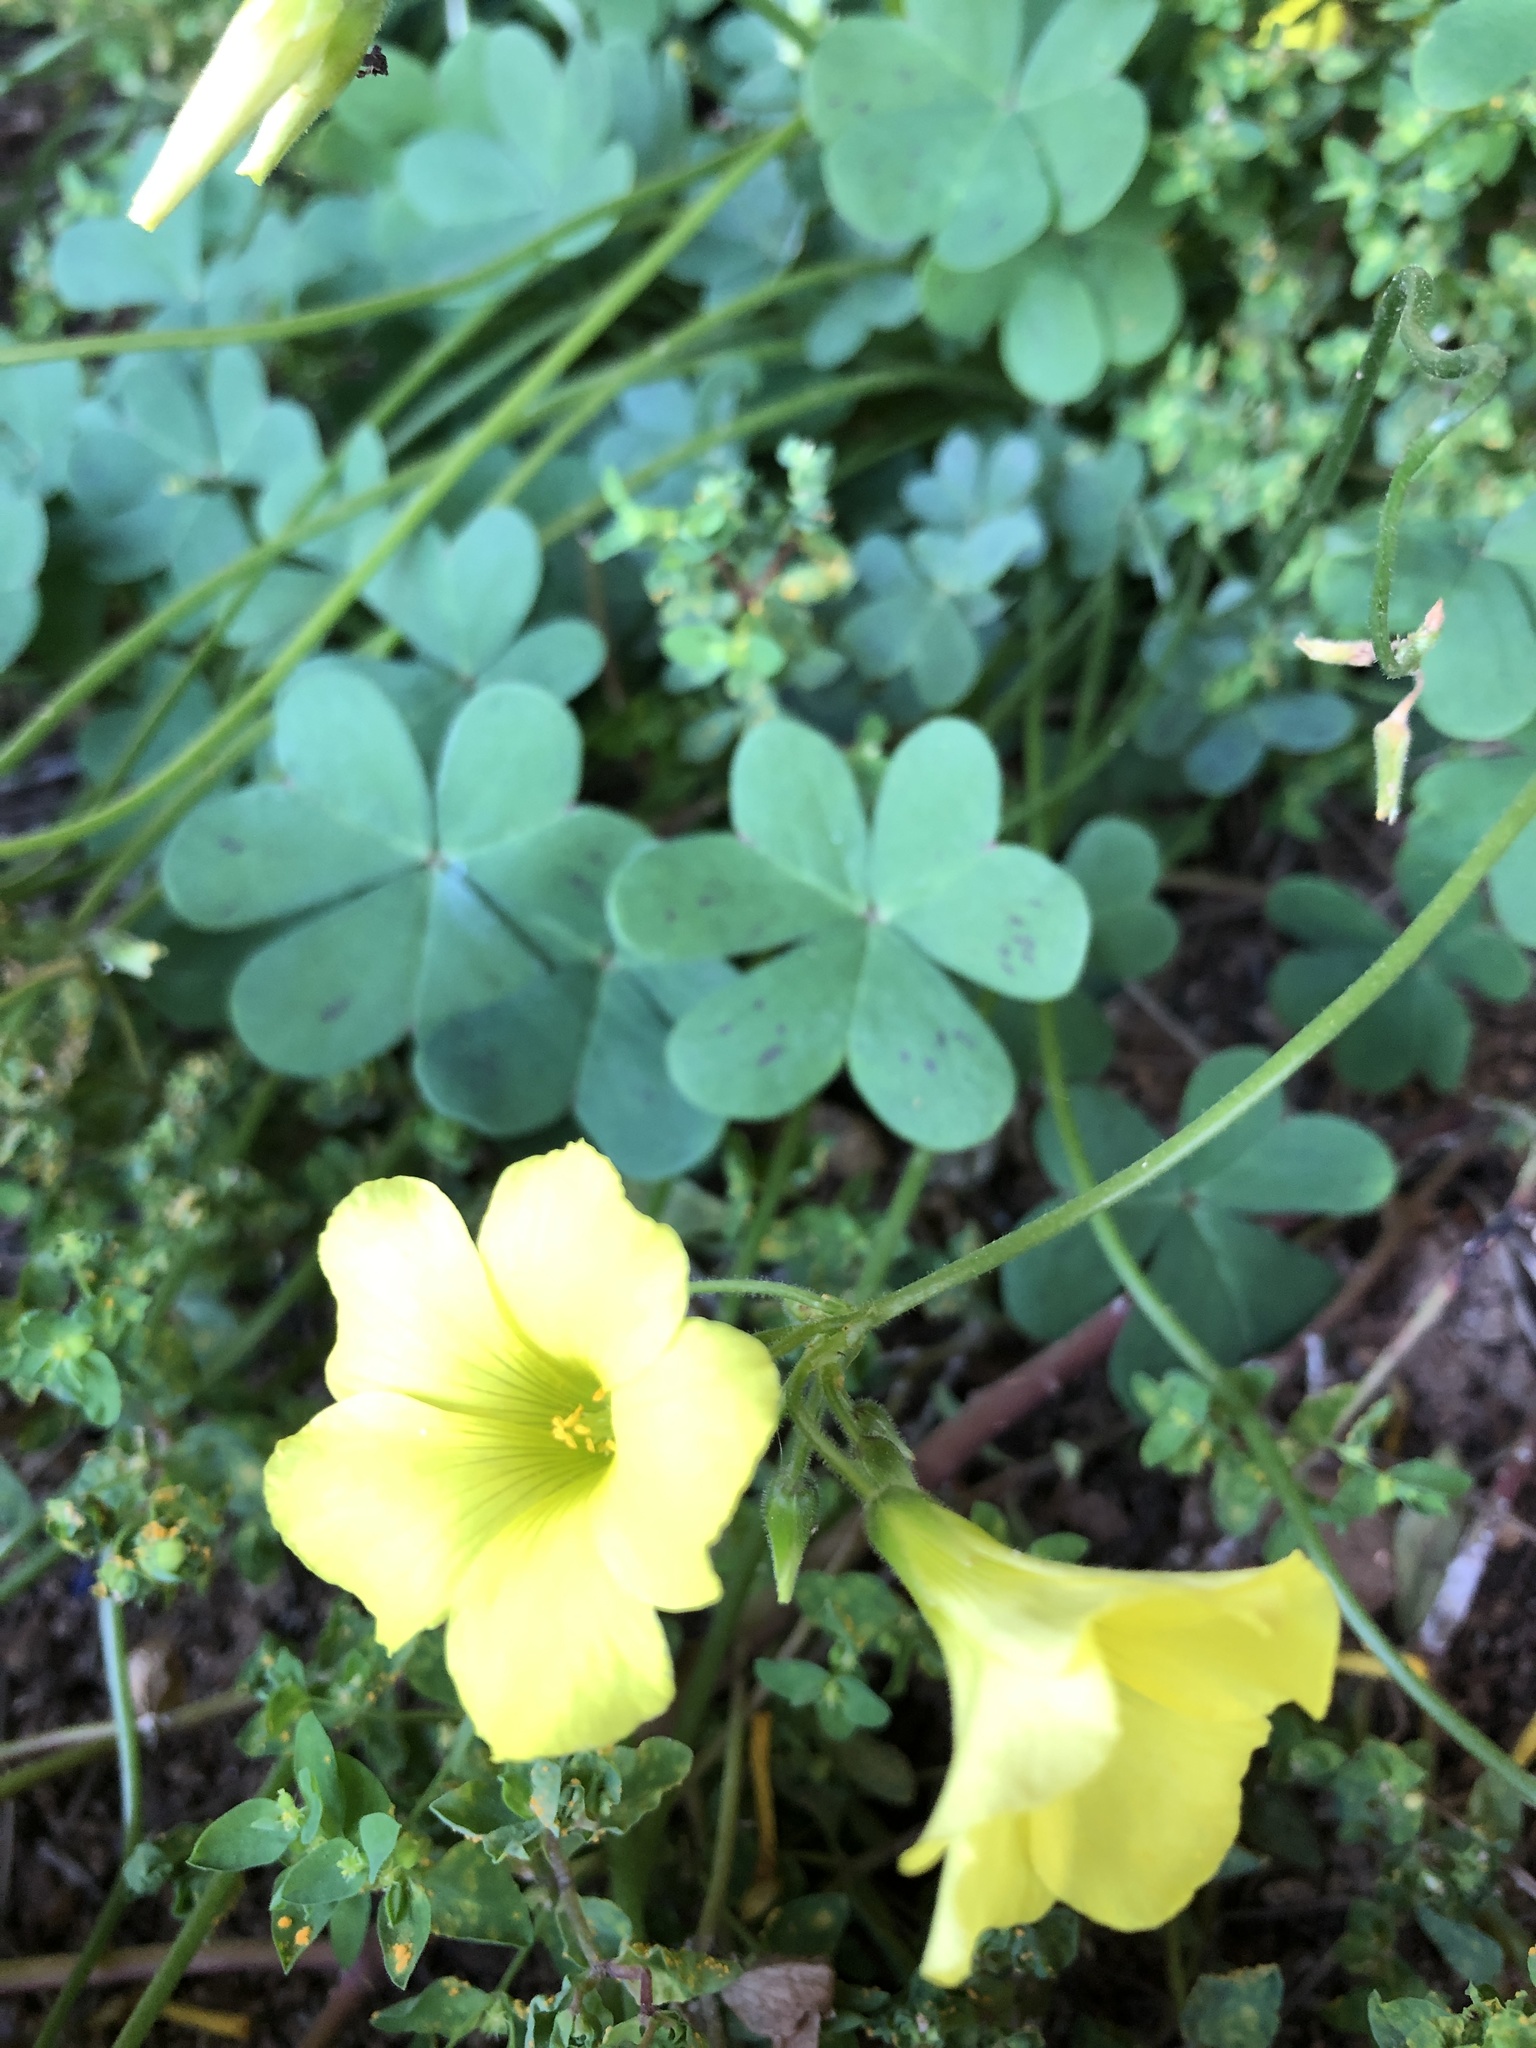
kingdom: Plantae
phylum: Tracheophyta
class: Magnoliopsida
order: Oxalidales
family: Oxalidaceae
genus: Oxalis
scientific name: Oxalis pes-caprae
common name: Bermuda-buttercup
